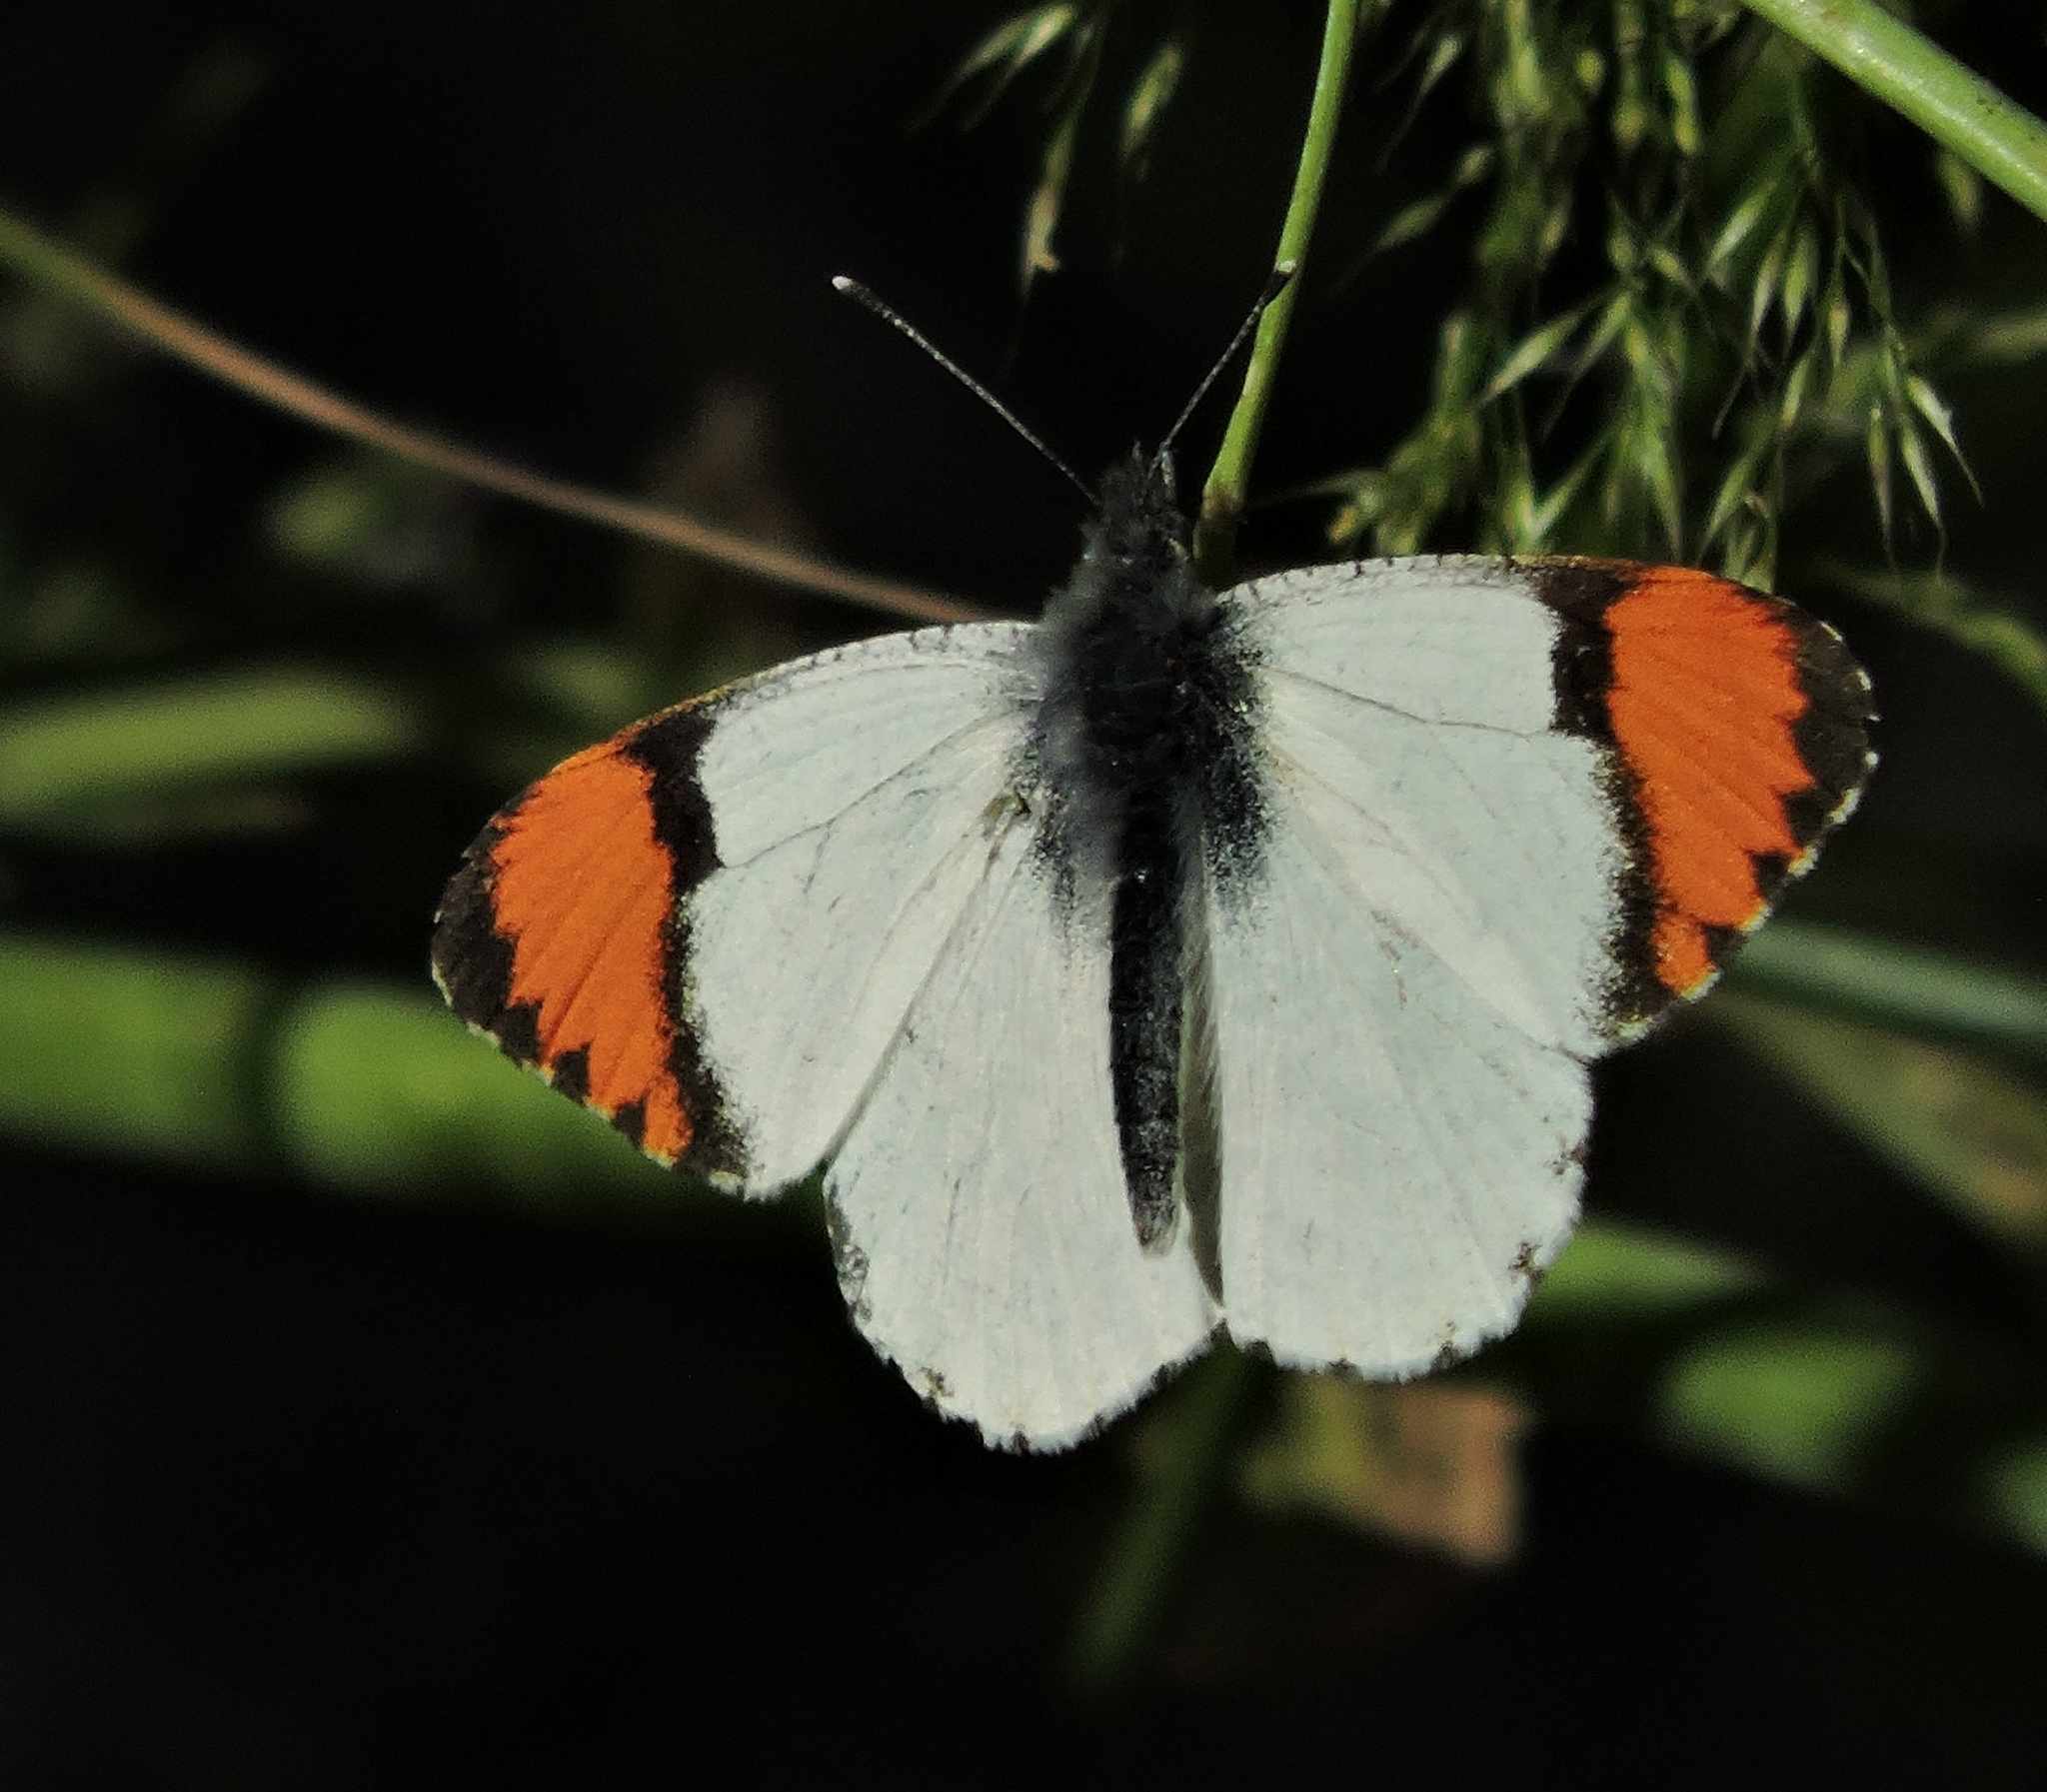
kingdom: Animalia
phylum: Arthropoda
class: Insecta
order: Lepidoptera
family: Pieridae
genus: Anthocharis
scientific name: Anthocharis sara
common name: Sara's orangetip
